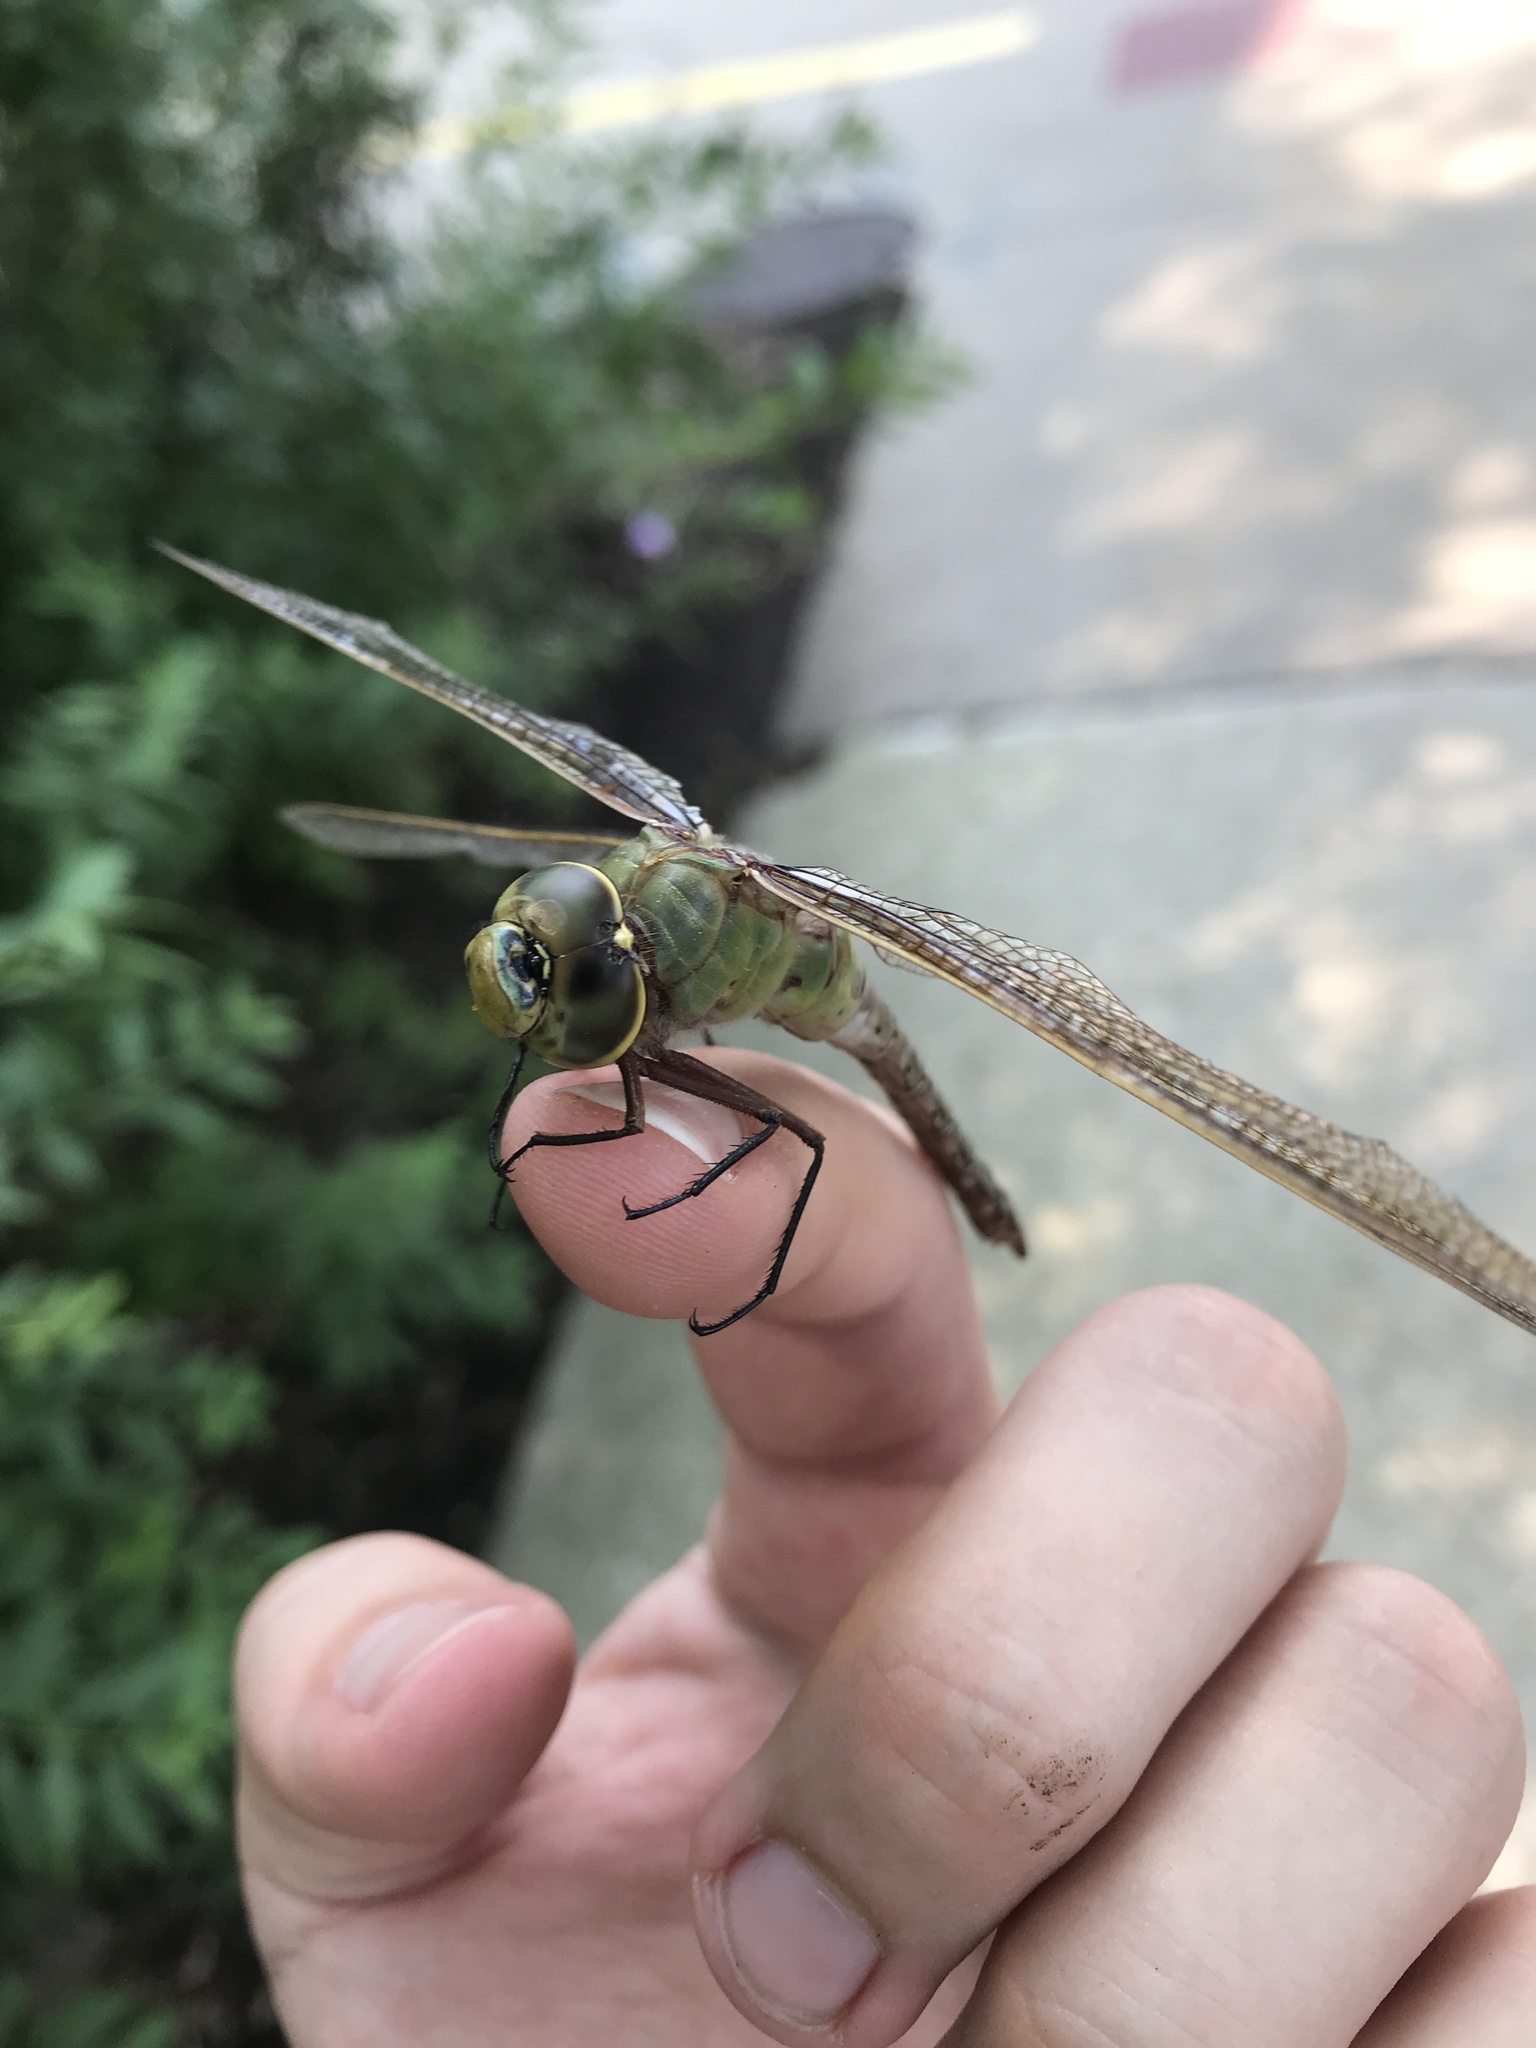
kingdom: Animalia
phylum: Arthropoda
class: Insecta
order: Odonata
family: Aeshnidae
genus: Anax
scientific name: Anax junius
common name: Common green darner
